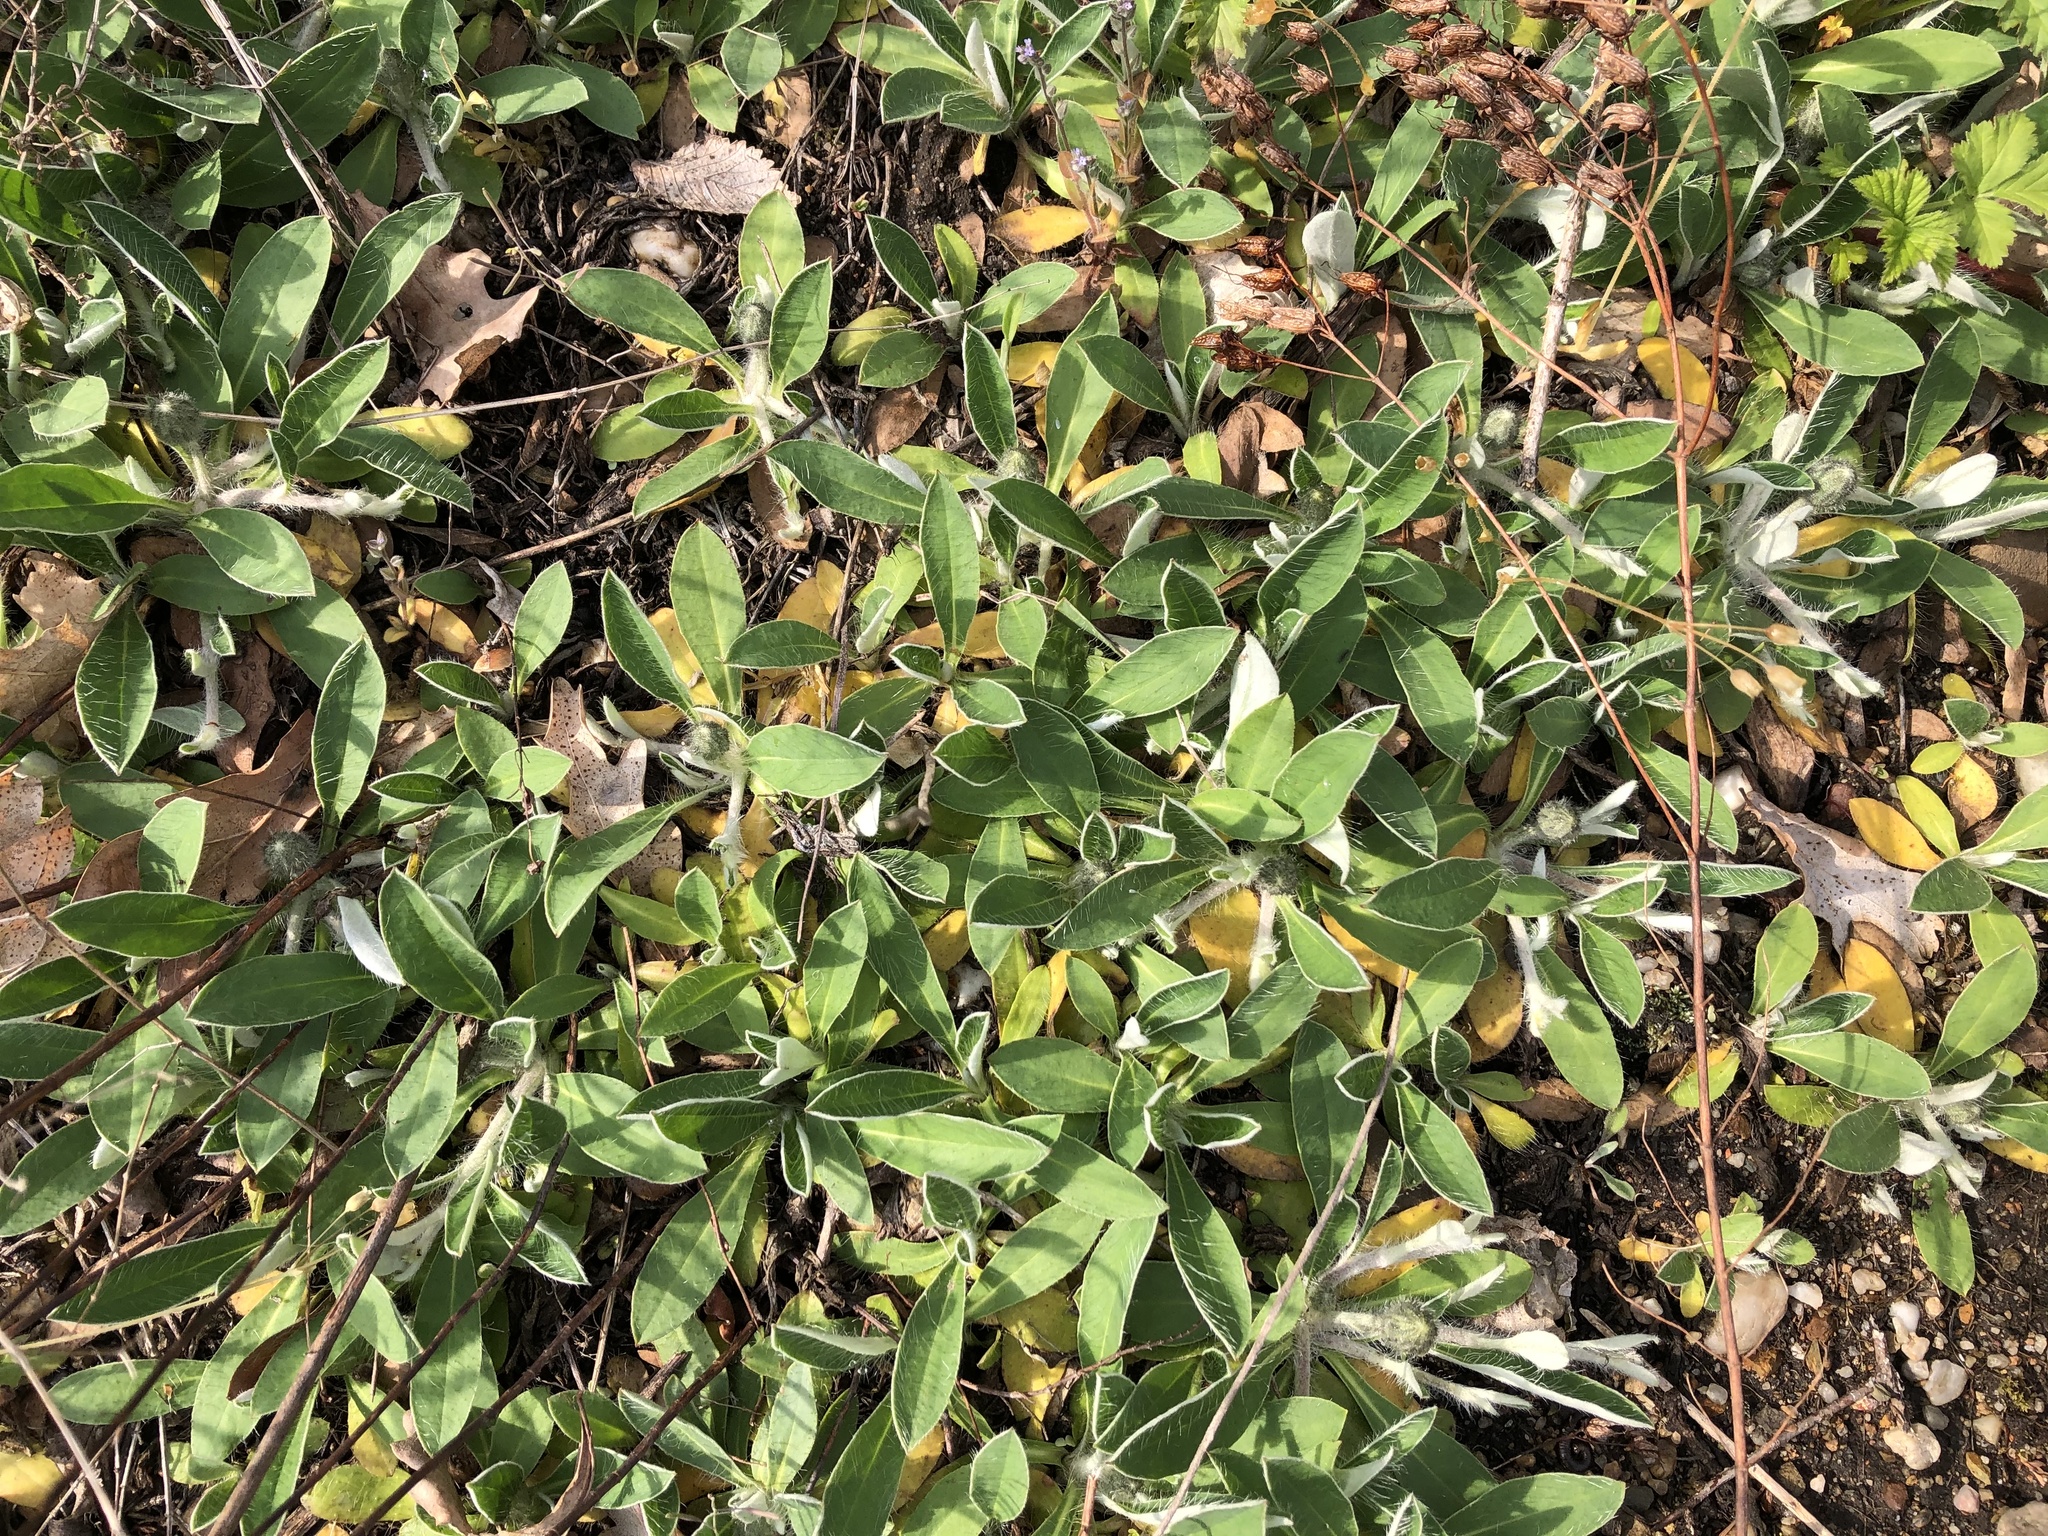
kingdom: Plantae
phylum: Tracheophyta
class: Magnoliopsida
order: Asterales
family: Asteraceae
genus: Pilosella
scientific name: Pilosella officinarum
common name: Mouse-ear hawkweed
